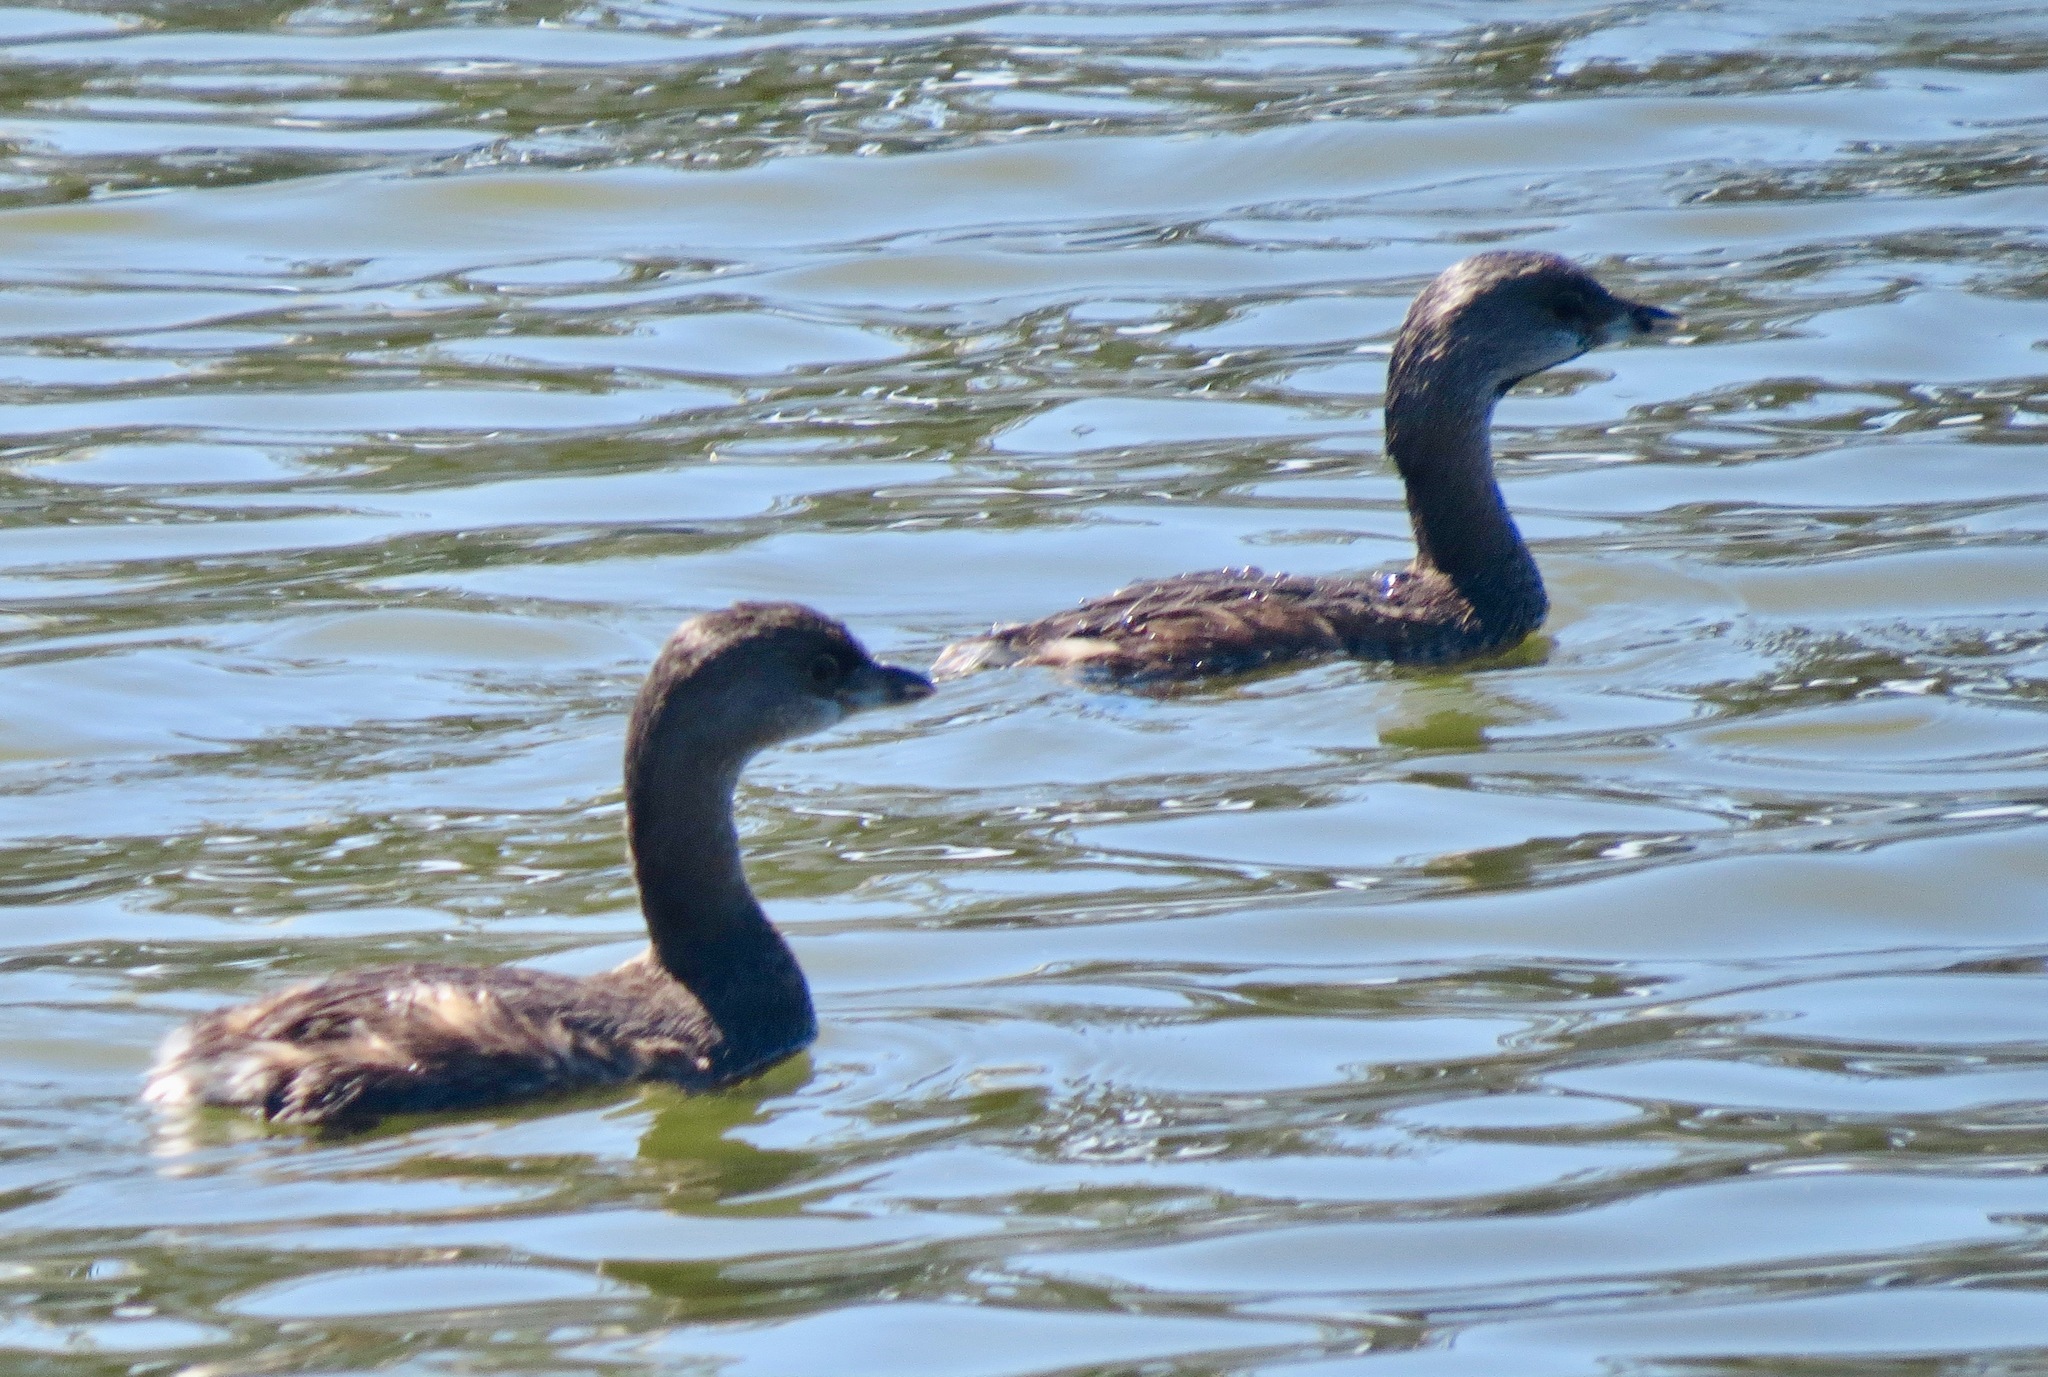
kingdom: Animalia
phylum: Chordata
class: Aves
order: Podicipediformes
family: Podicipedidae
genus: Podilymbus
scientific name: Podilymbus podiceps
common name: Pied-billed grebe
